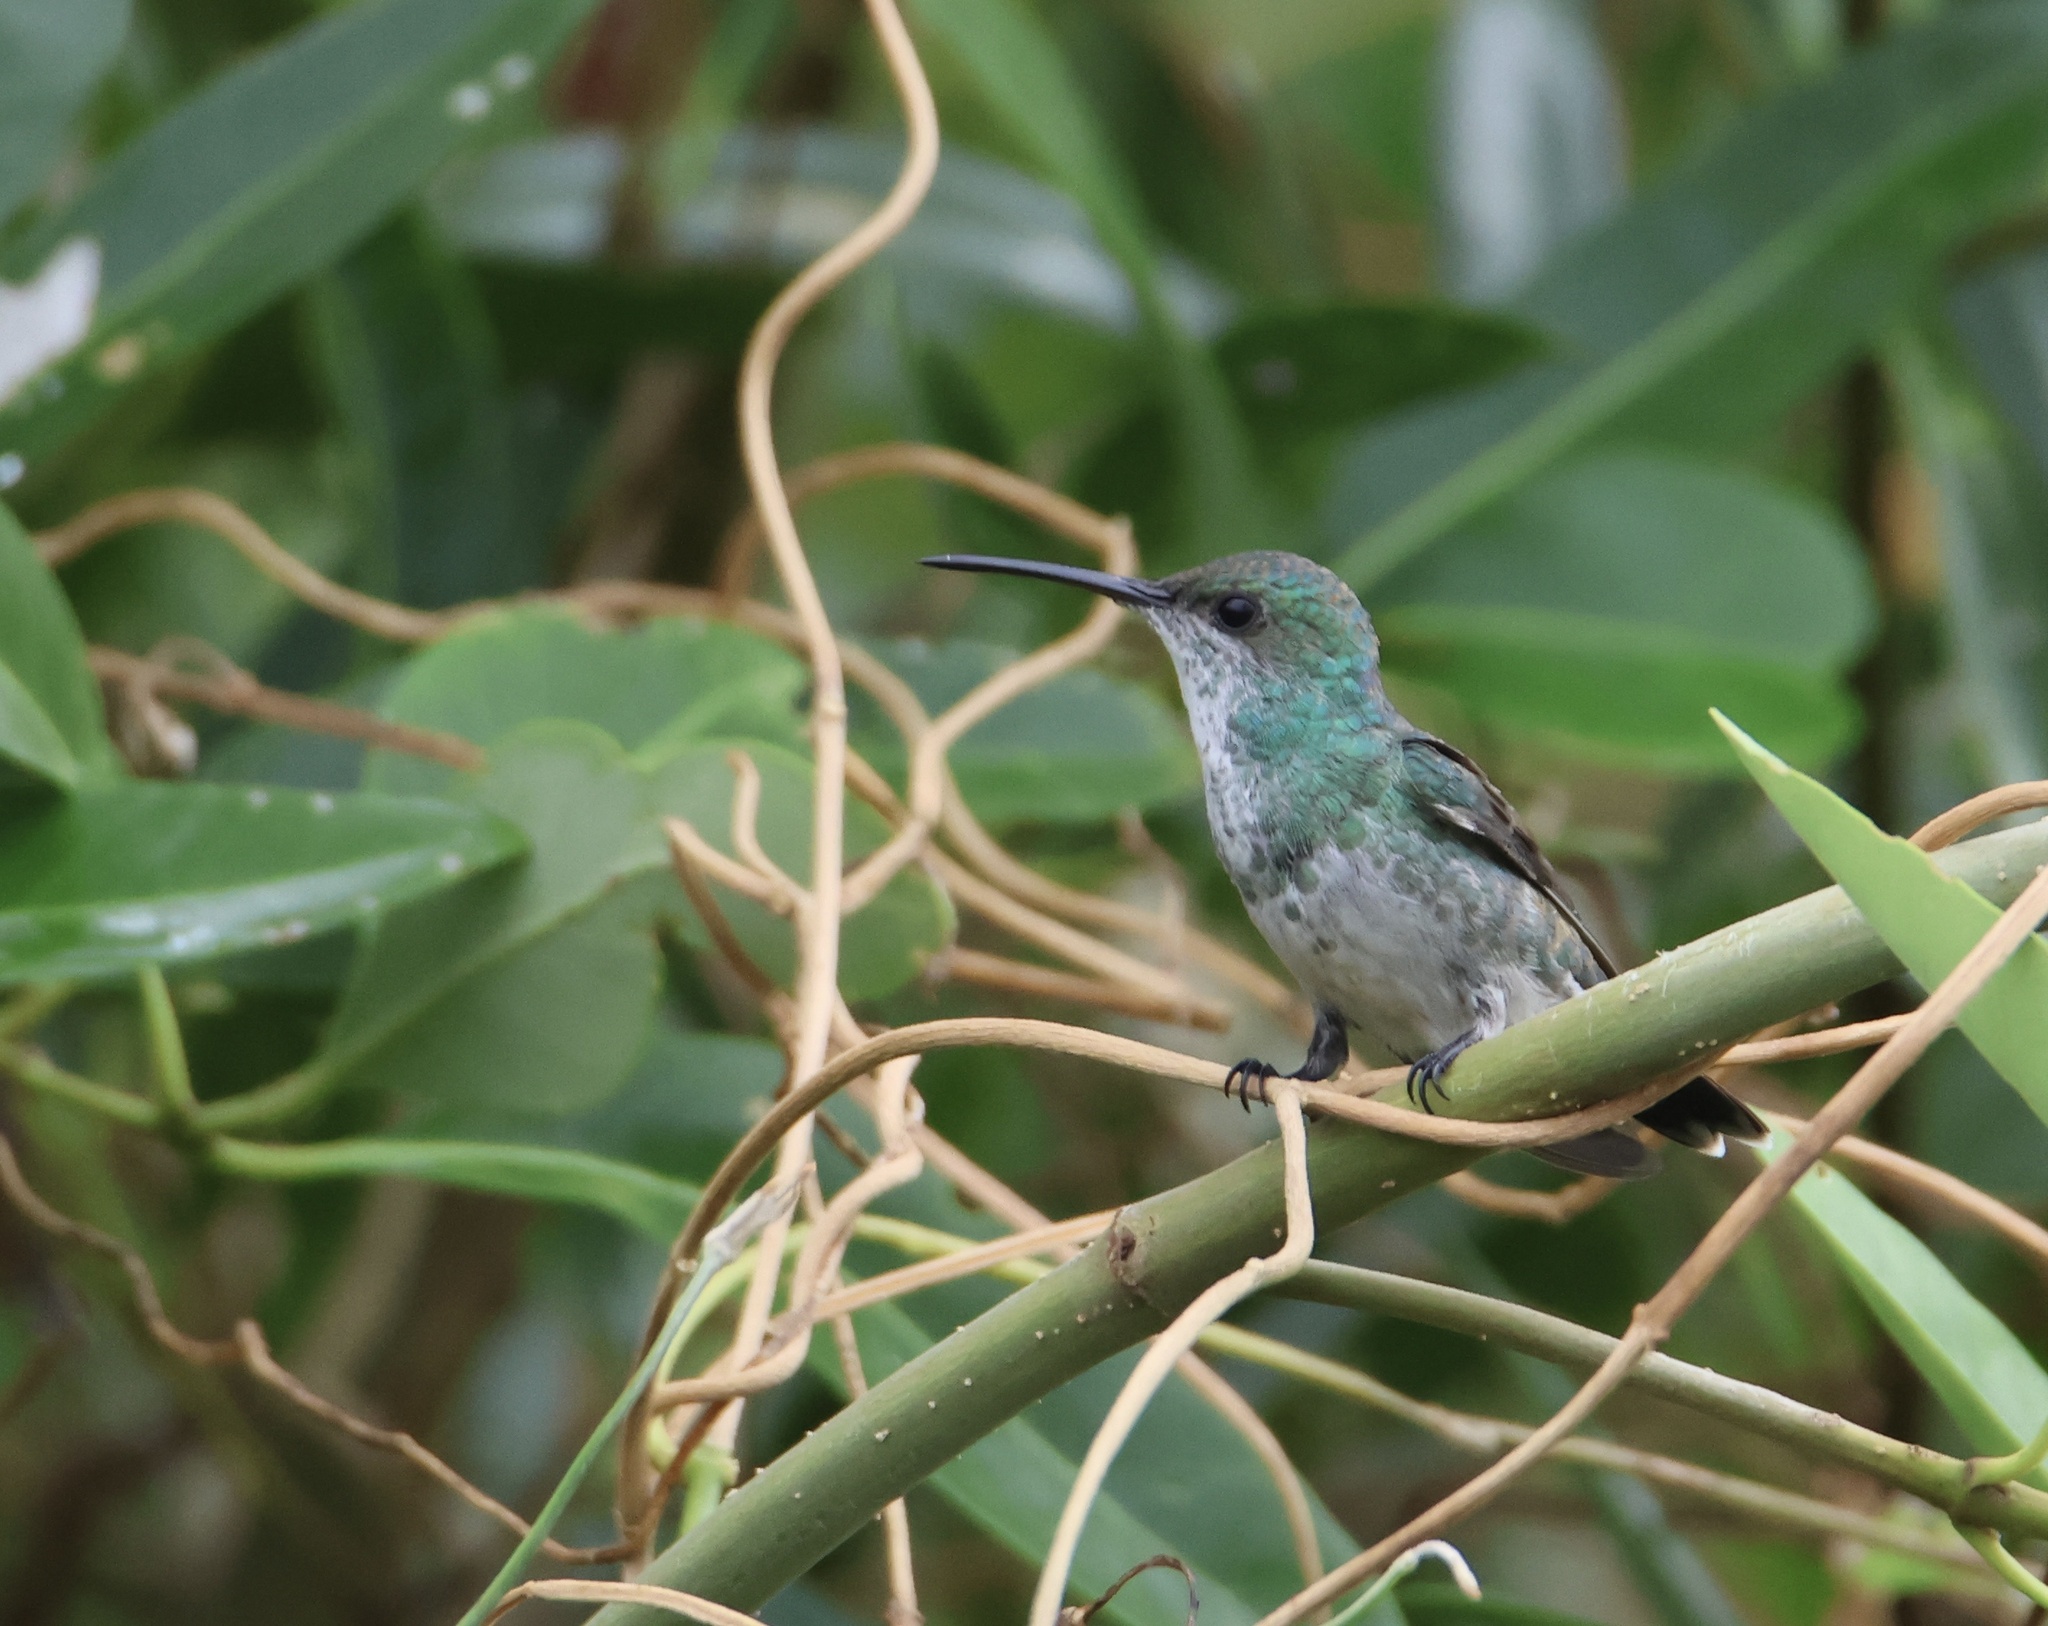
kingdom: Animalia
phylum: Chordata
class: Aves
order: Apodiformes
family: Trochilidae
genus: Chrysuronia
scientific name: Chrysuronia coeruleogularis
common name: Sapphire-throated hummingbird
